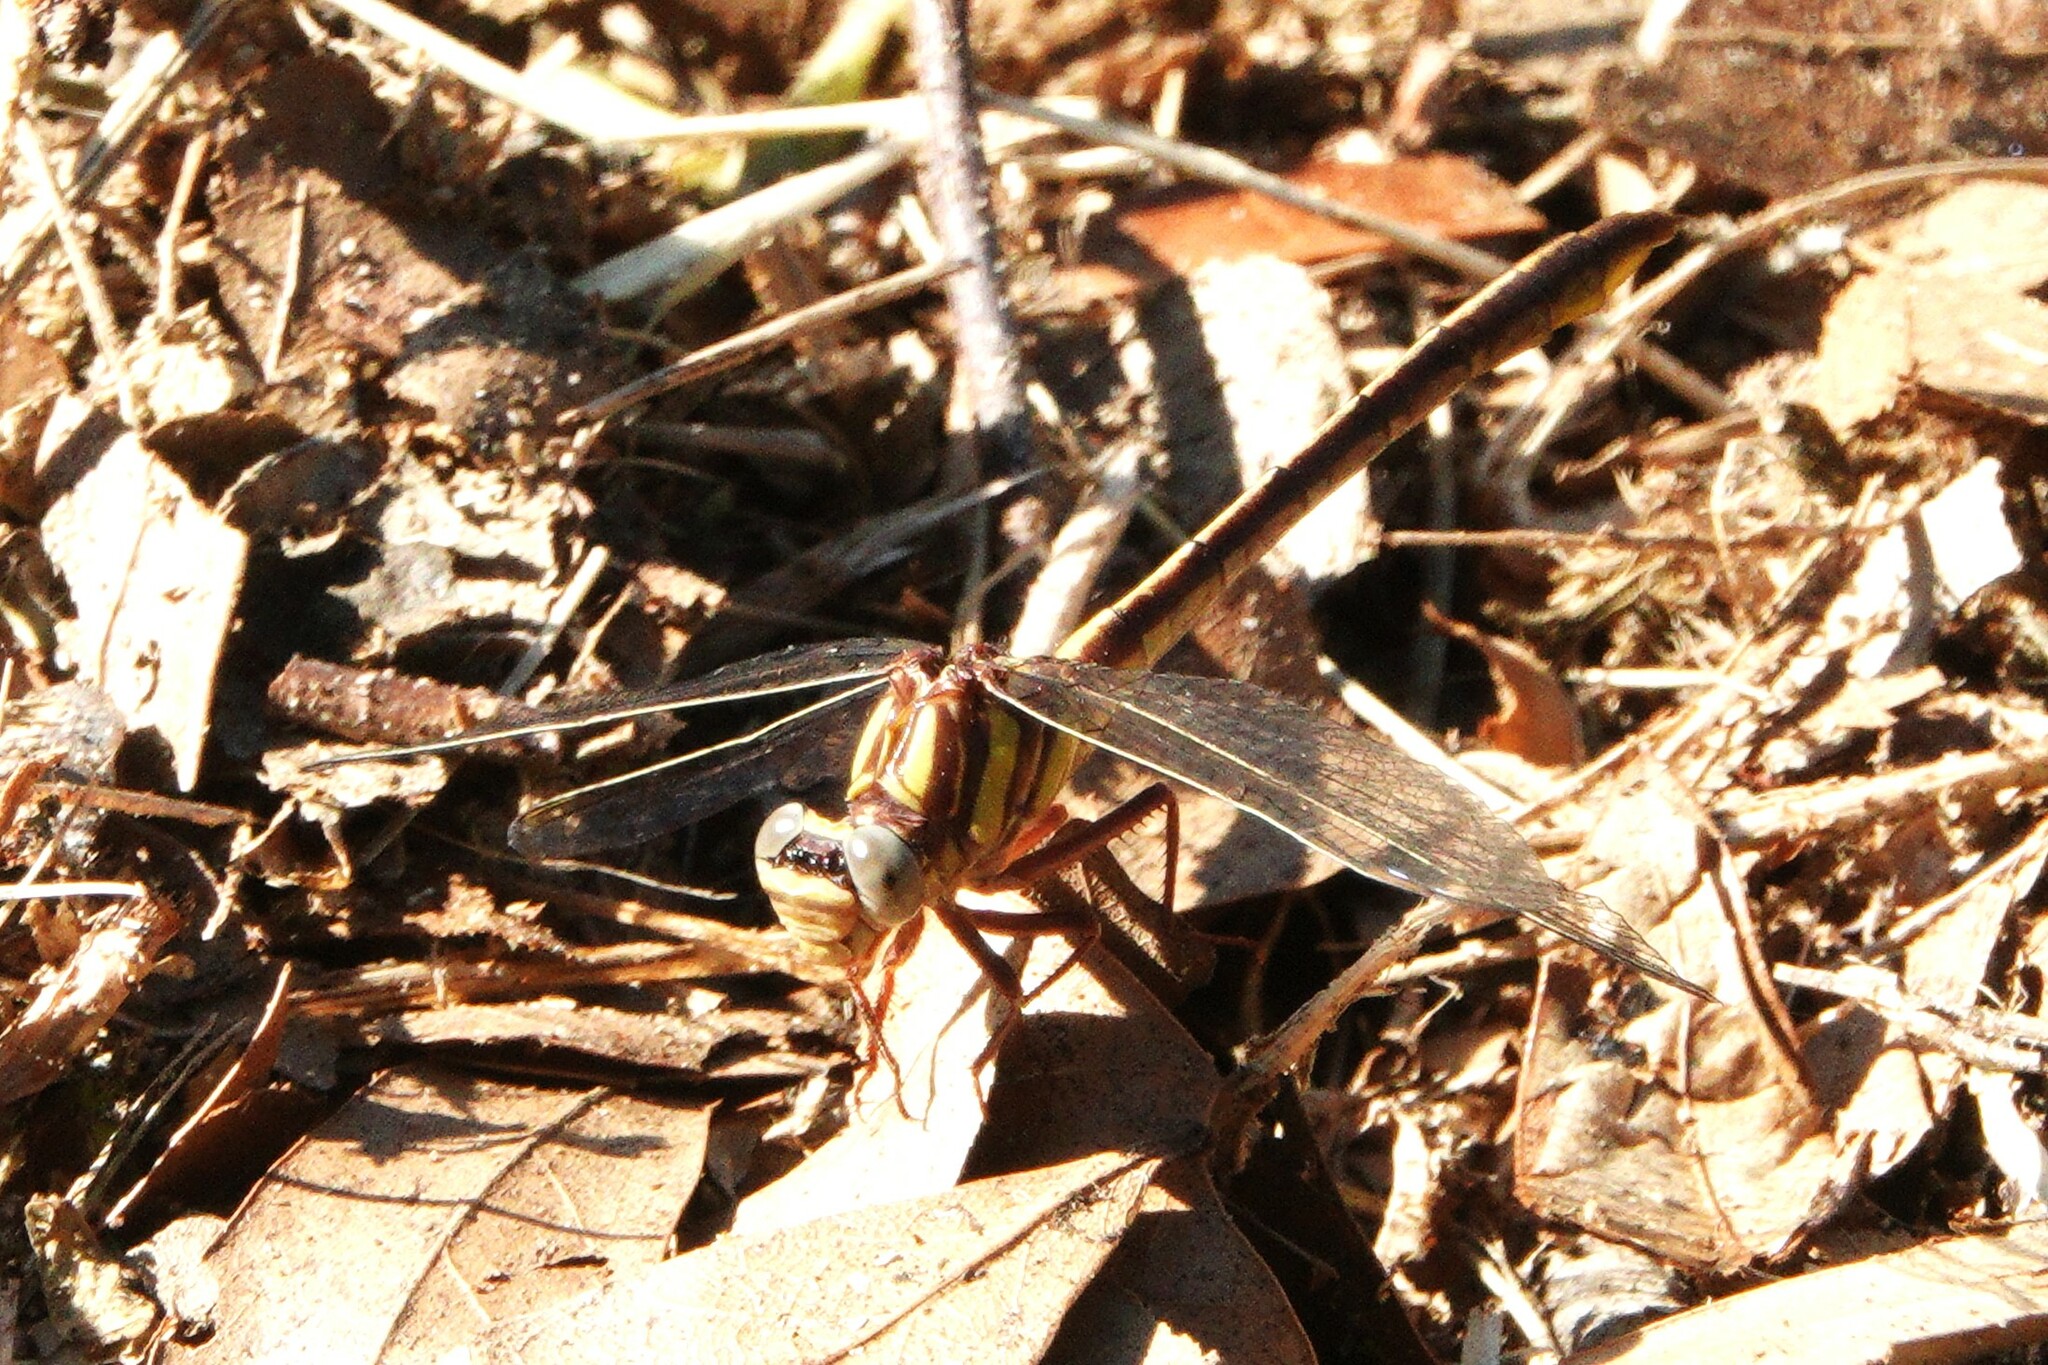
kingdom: Animalia
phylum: Arthropoda
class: Insecta
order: Odonata
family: Gomphidae
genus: Phanogomphus
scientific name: Phanogomphus minutus
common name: Cypress clubtail
